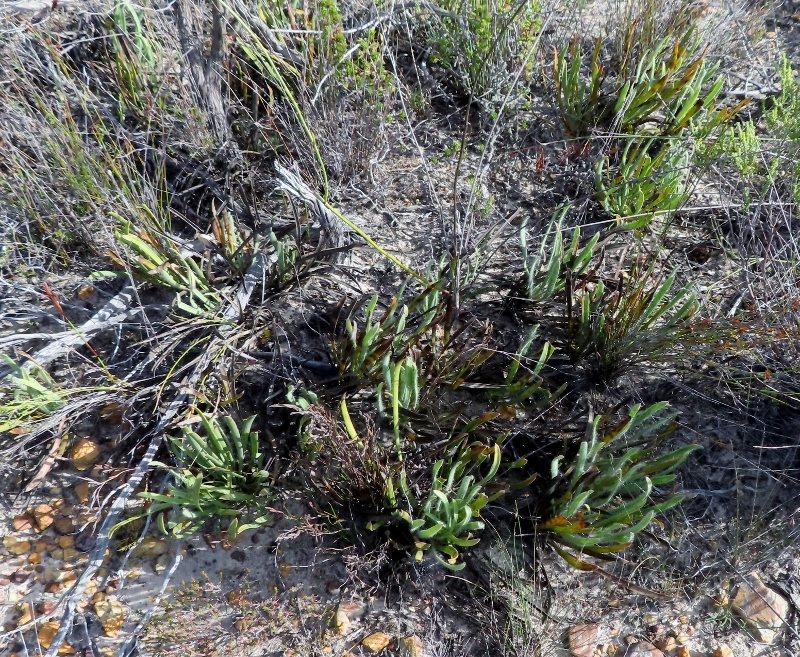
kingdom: Plantae
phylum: Tracheophyta
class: Magnoliopsida
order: Proteales
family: Proteaceae
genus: Protea
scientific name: Protea aspera
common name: Rough-leaf sugarbush
